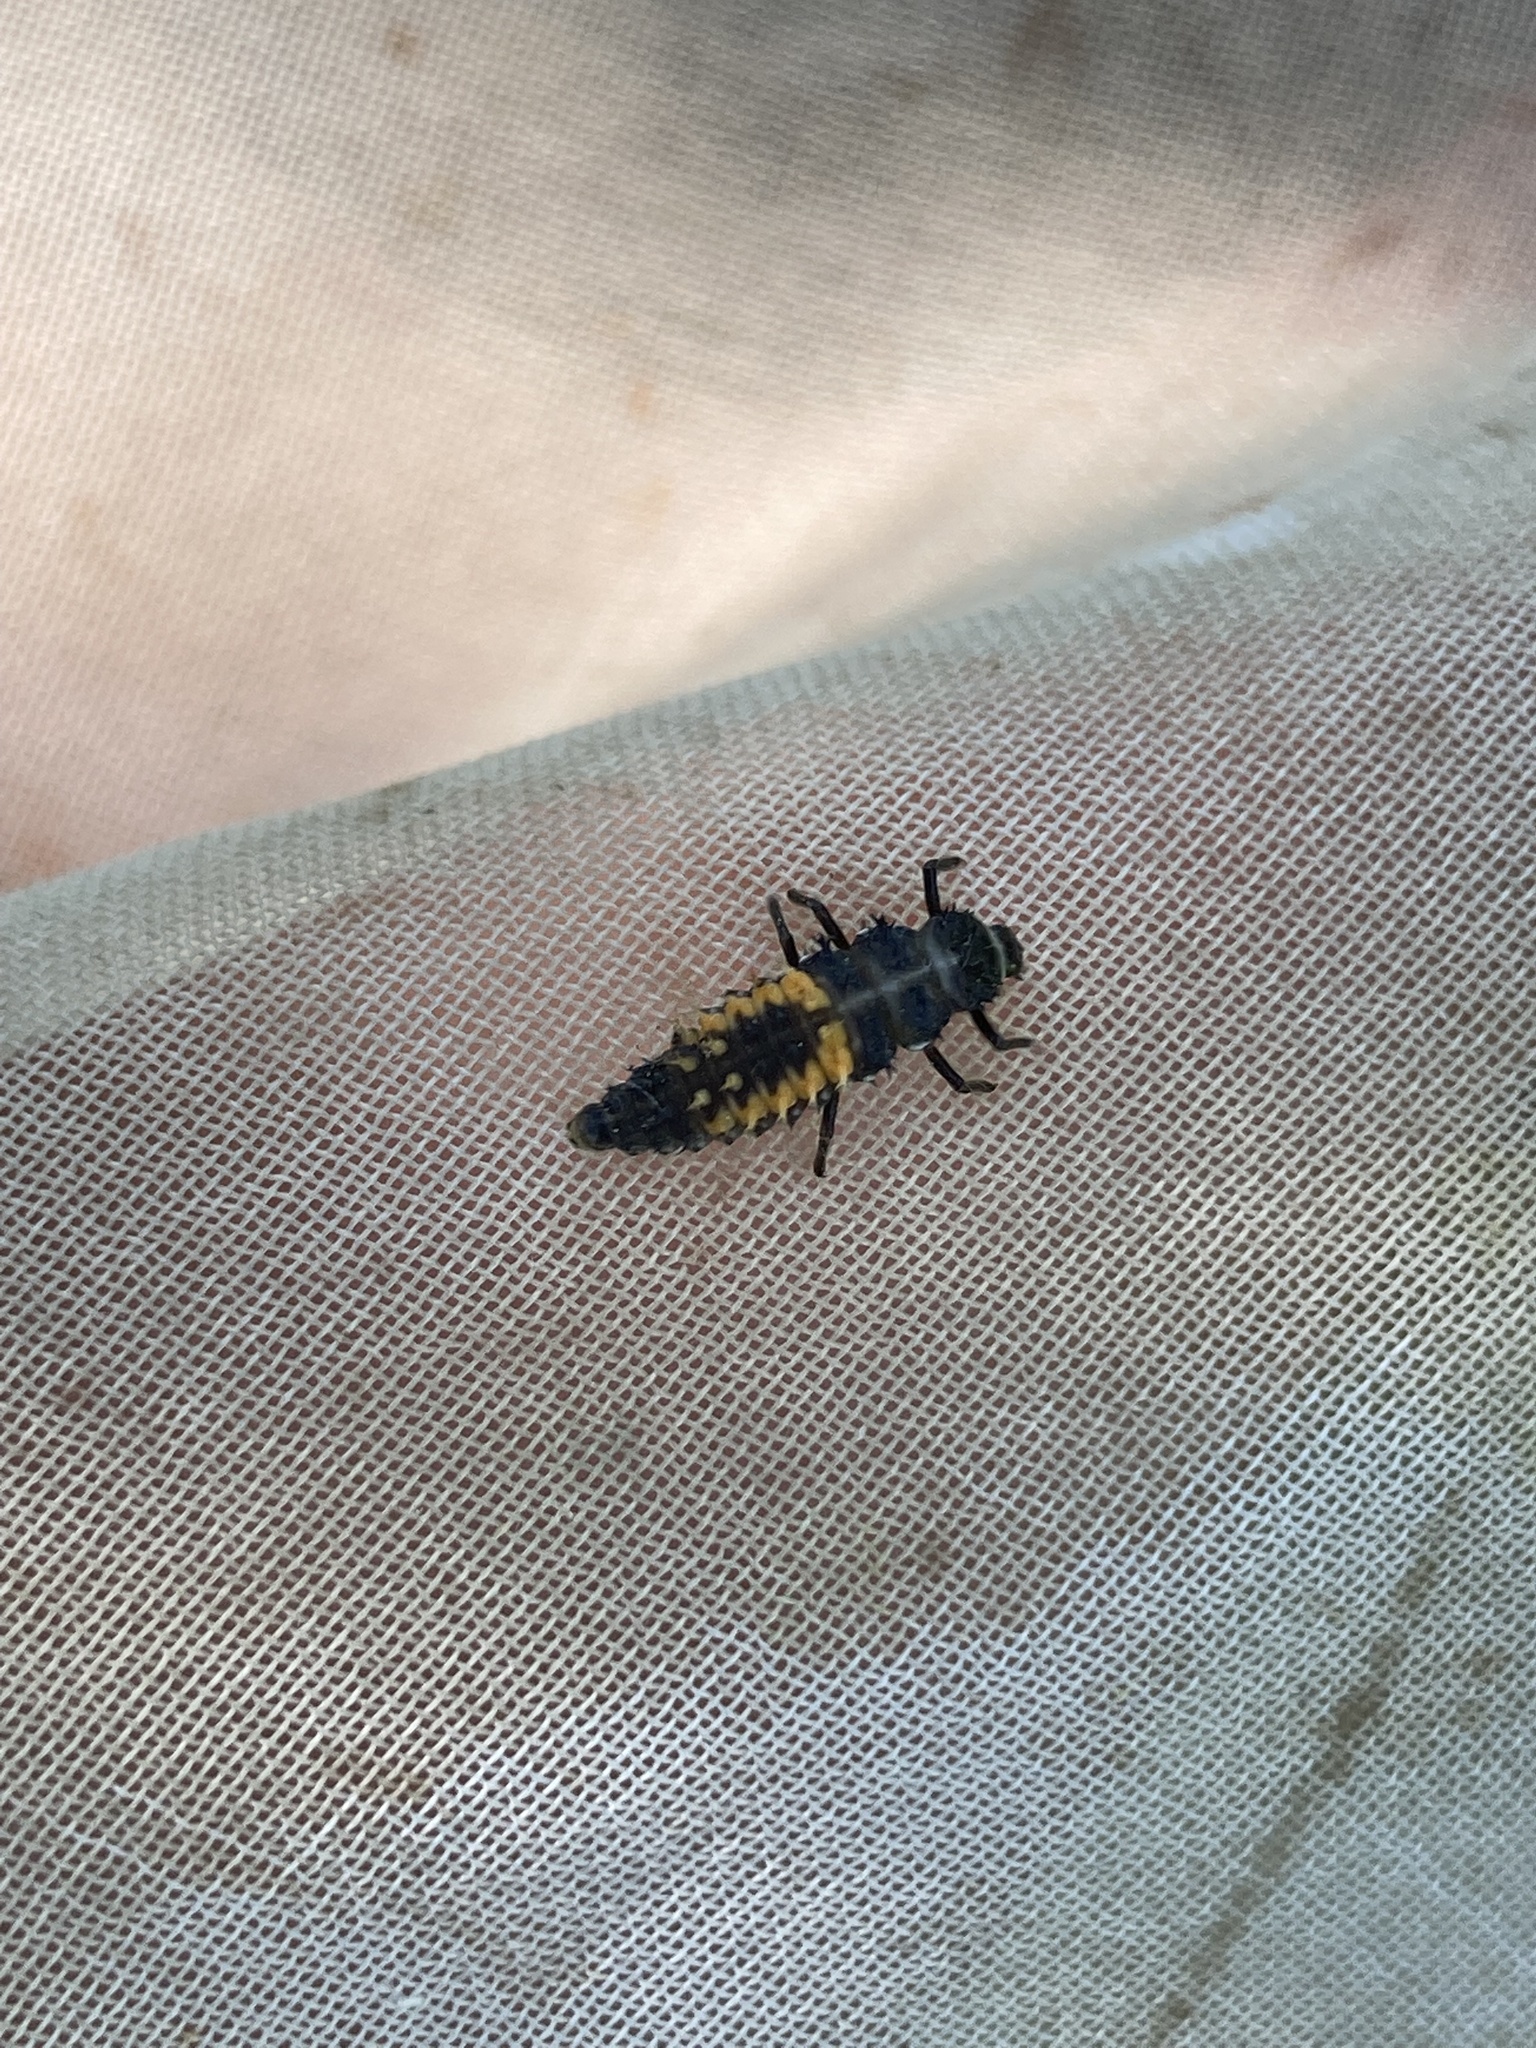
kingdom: Animalia
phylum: Arthropoda
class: Insecta
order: Coleoptera
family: Coccinellidae
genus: Harmonia
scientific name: Harmonia axyridis
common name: Harlequin ladybird
